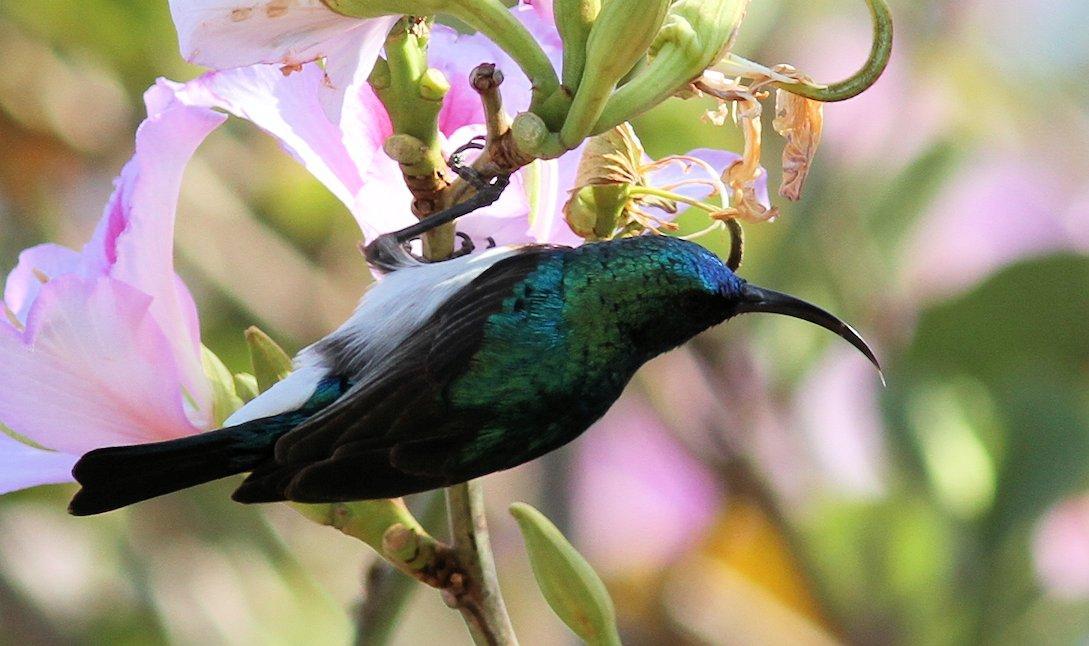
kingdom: Animalia
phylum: Chordata
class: Aves
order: Passeriformes
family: Nectariniidae
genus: Cinnyris
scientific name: Cinnyris talatala
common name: White-bellied sunbird
